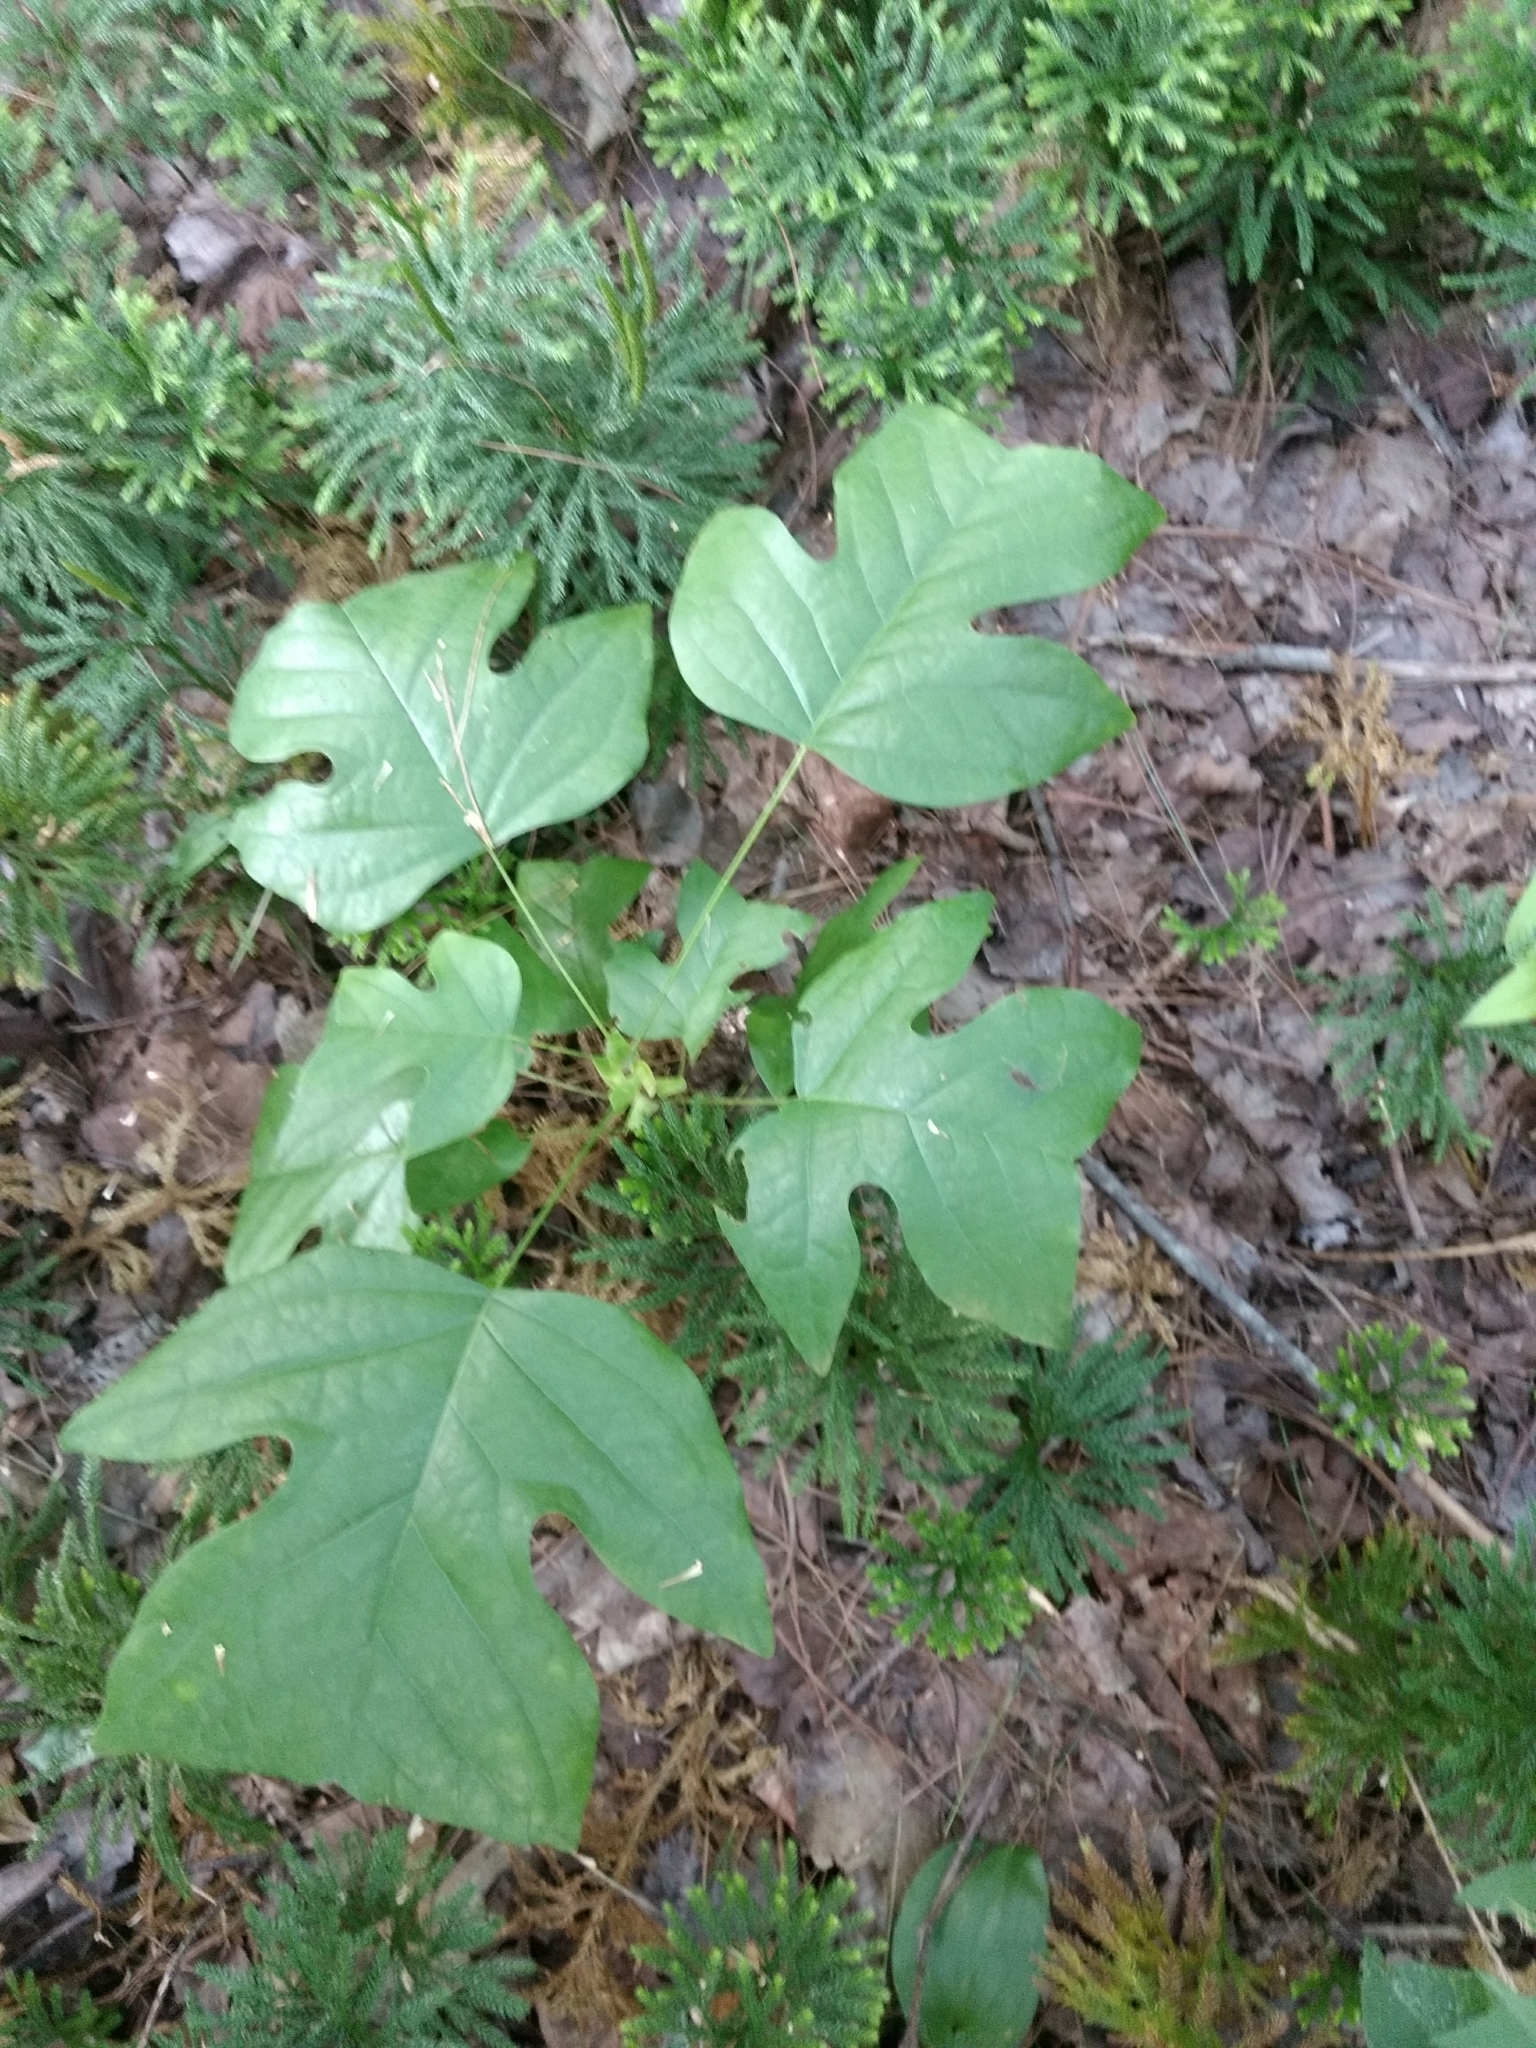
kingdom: Plantae
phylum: Tracheophyta
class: Magnoliopsida
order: Magnoliales
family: Magnoliaceae
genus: Liriodendron
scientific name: Liriodendron tulipifera
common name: Tulip tree
